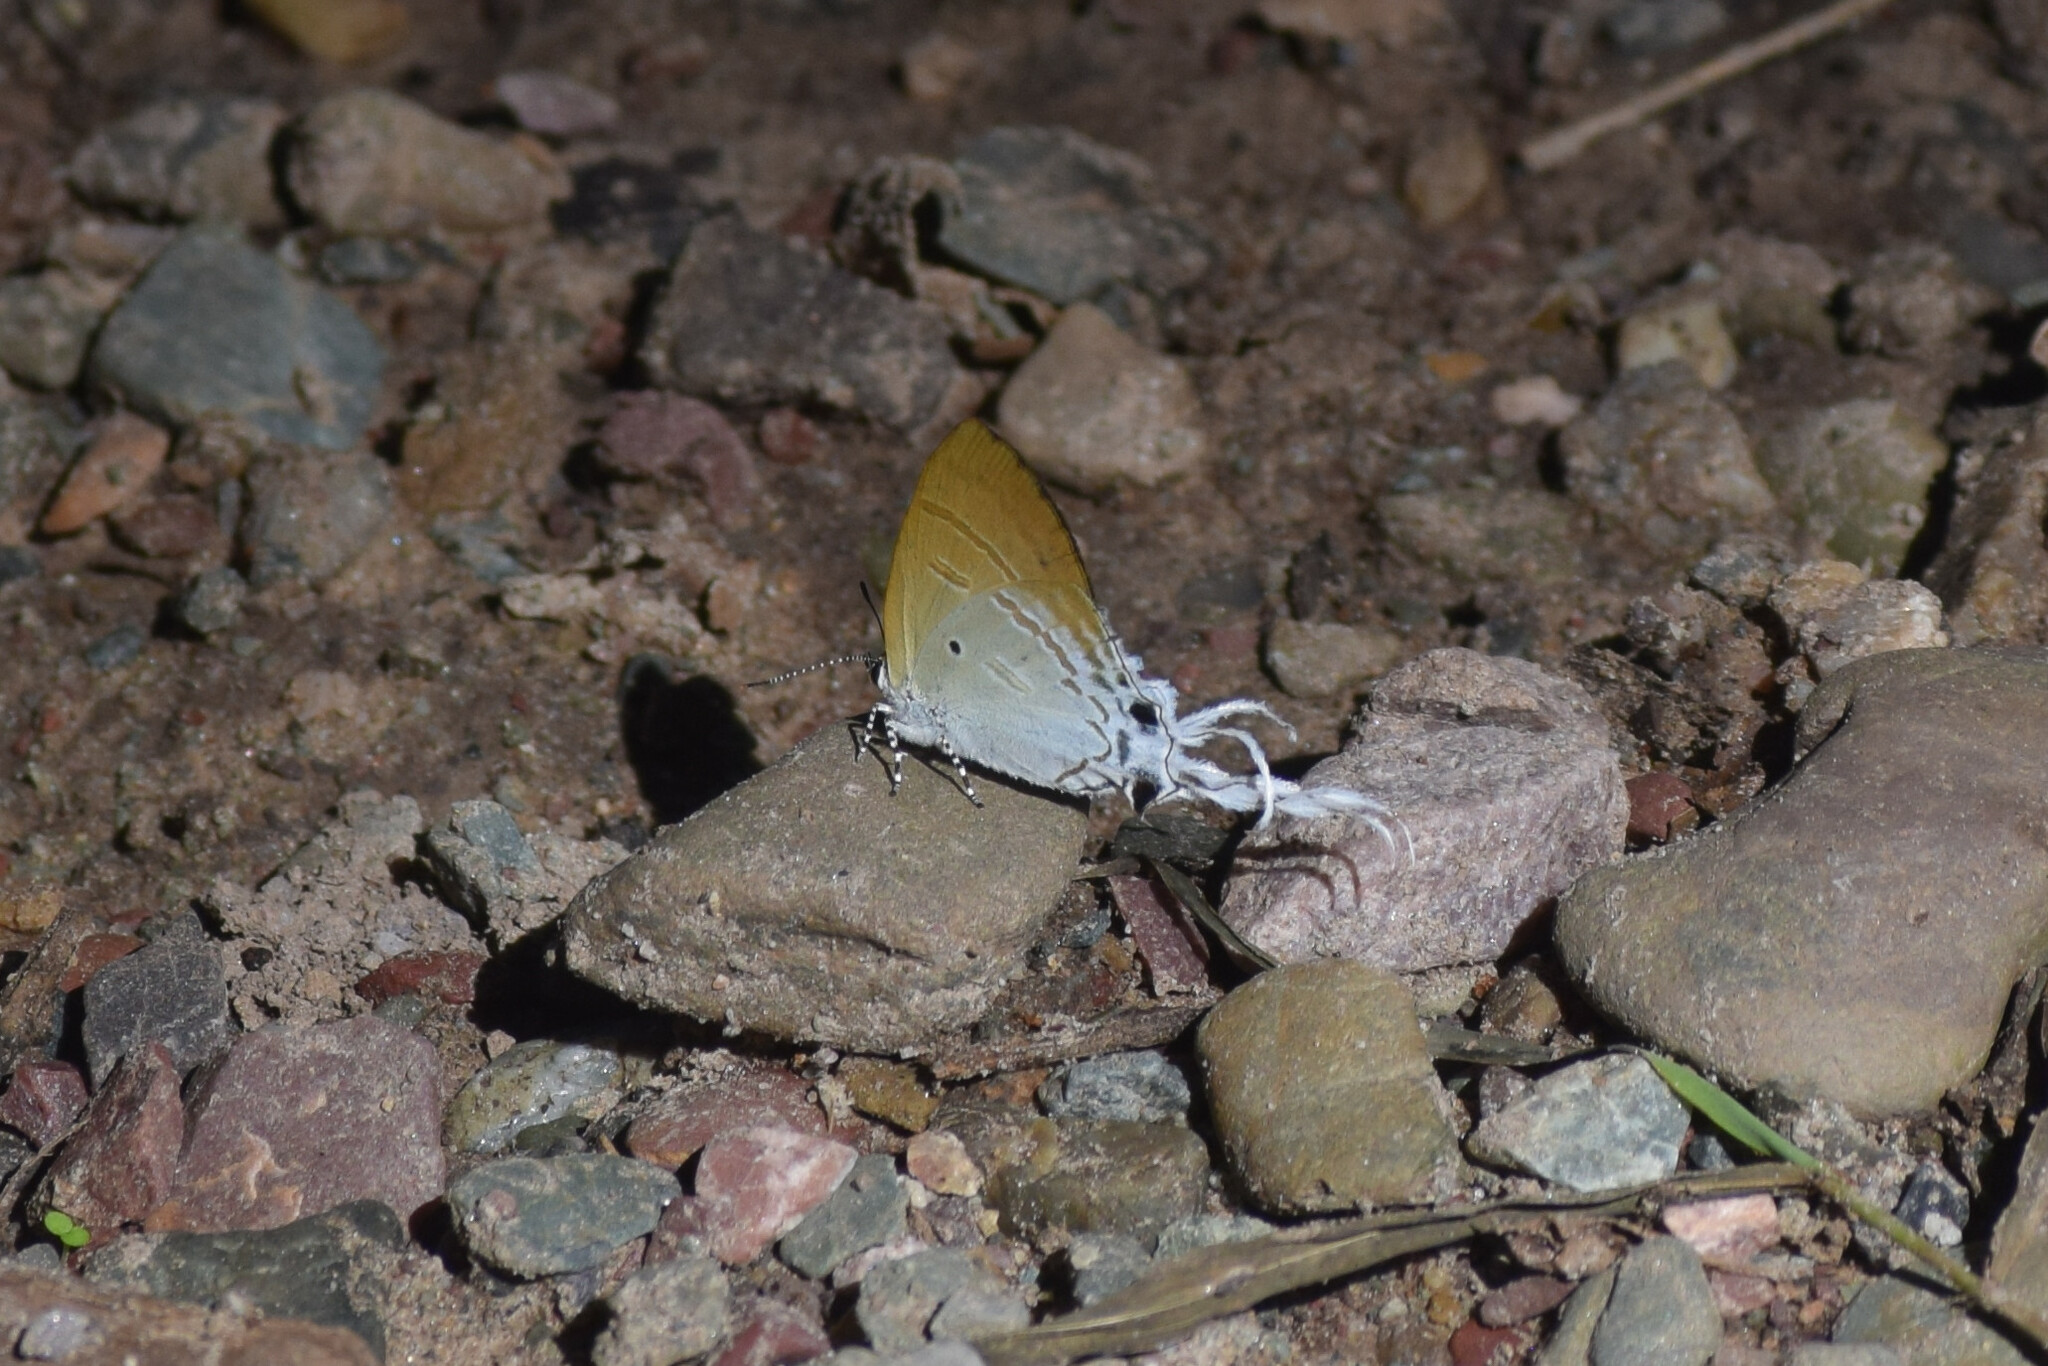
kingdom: Animalia
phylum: Arthropoda
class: Insecta
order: Lepidoptera
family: Lycaenidae
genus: Zeltus
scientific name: Zeltus amasa
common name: Fluffy tit
